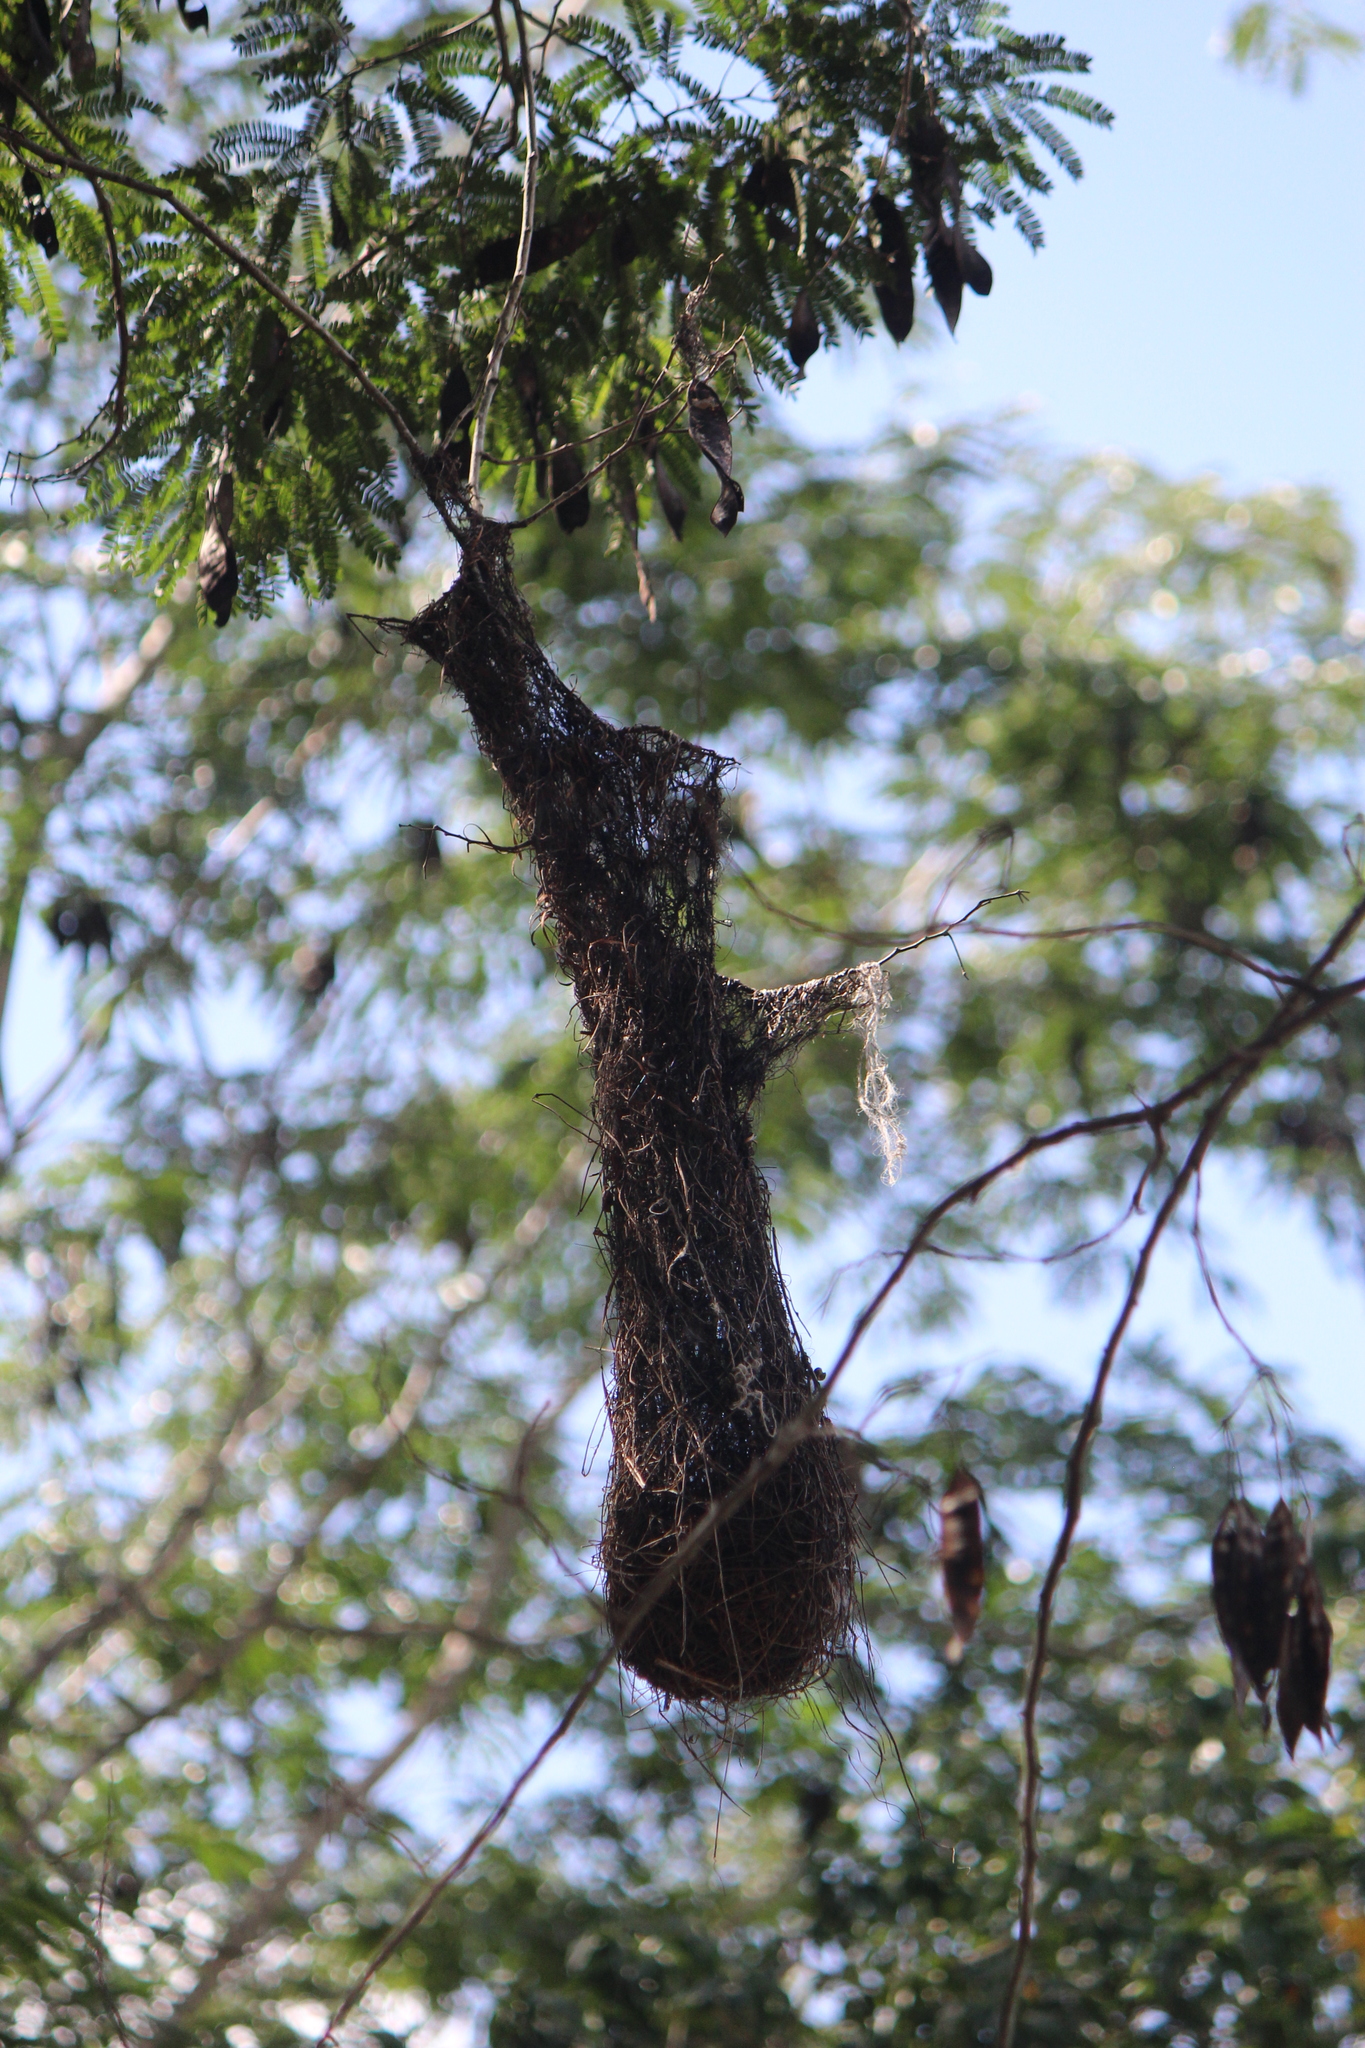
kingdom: Animalia
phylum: Chordata
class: Aves
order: Passeriformes
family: Icteridae
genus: Icterus
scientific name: Icterus gularis
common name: Altamira oriole
